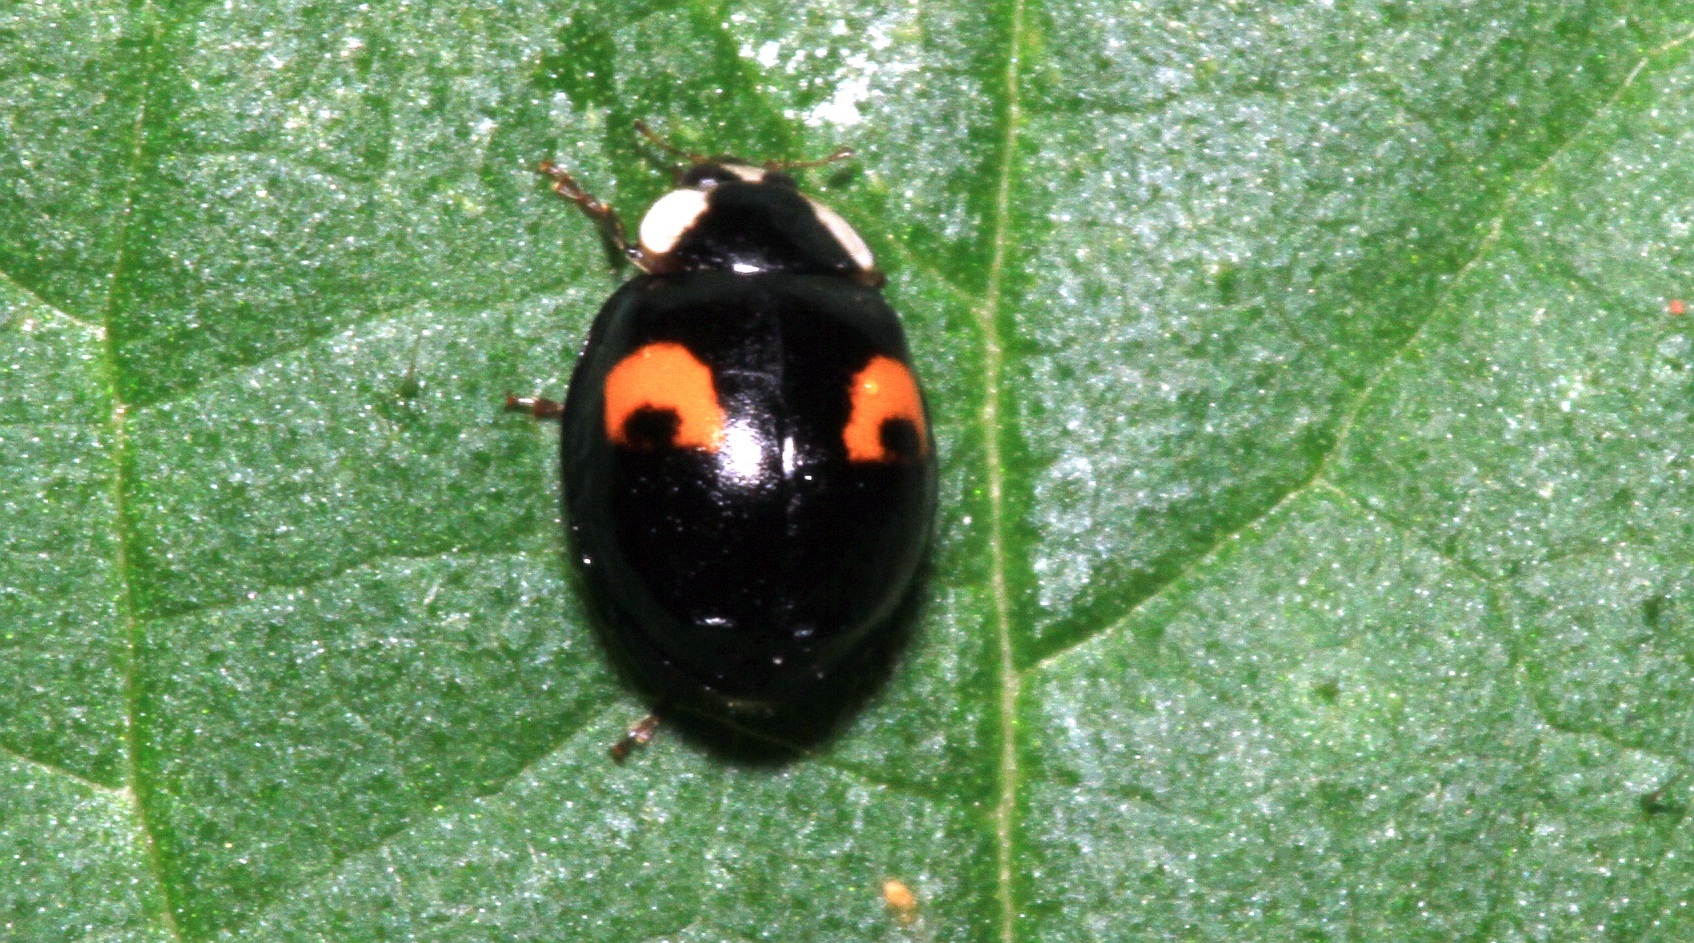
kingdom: Animalia
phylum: Arthropoda
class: Insecta
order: Coleoptera
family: Coccinellidae
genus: Harmonia
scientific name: Harmonia axyridis
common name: Harlequin ladybird
